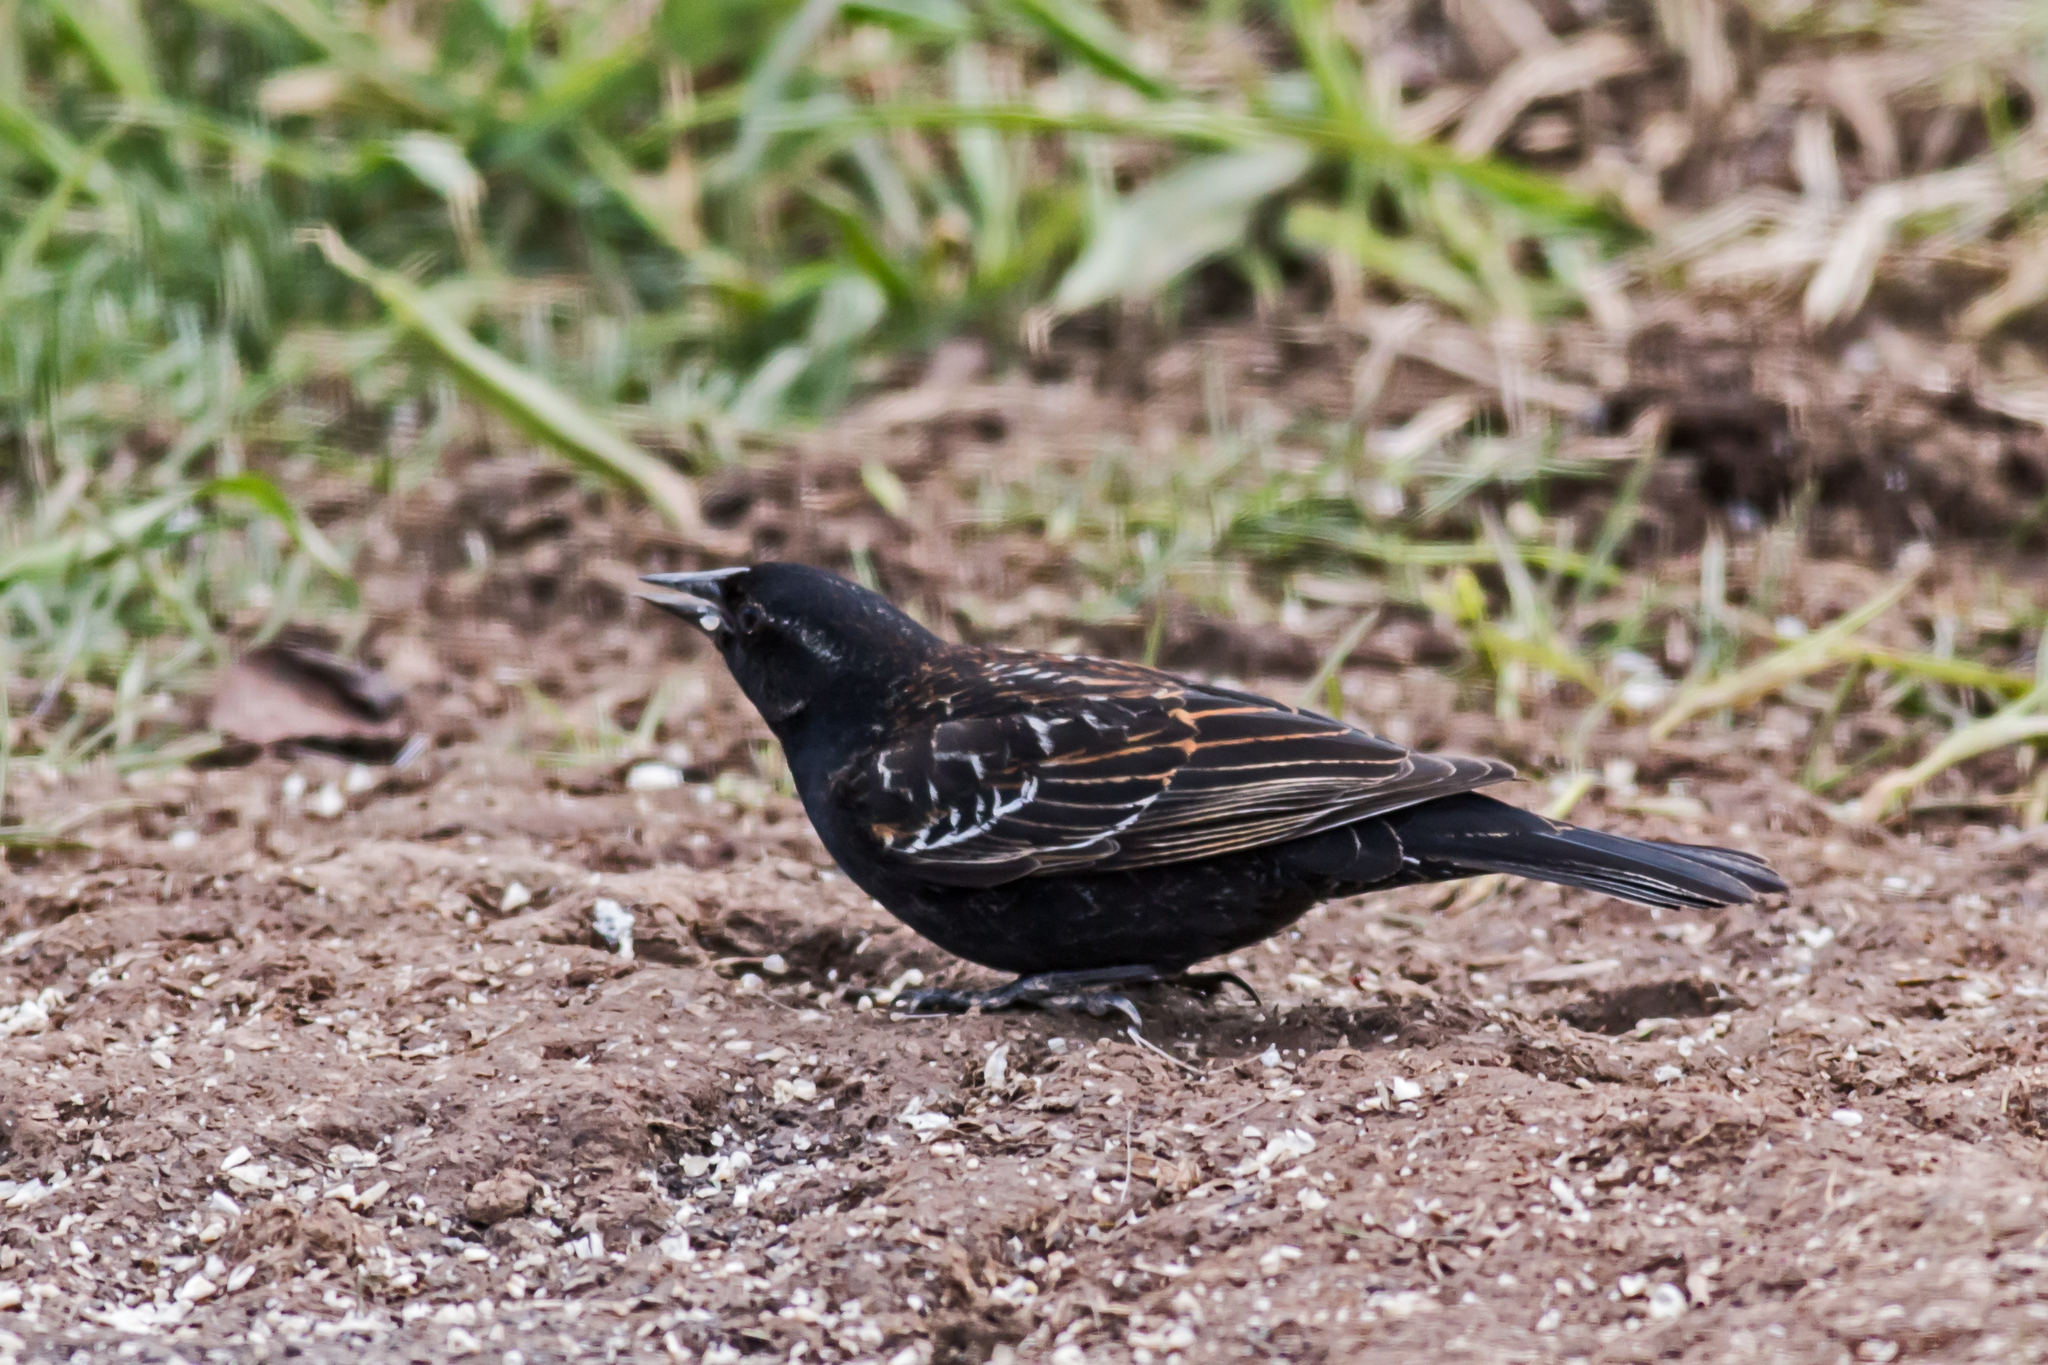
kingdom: Animalia
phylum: Chordata
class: Aves
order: Passeriformes
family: Icteridae
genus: Agelaius
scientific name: Agelaius phoeniceus
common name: Red-winged blackbird
